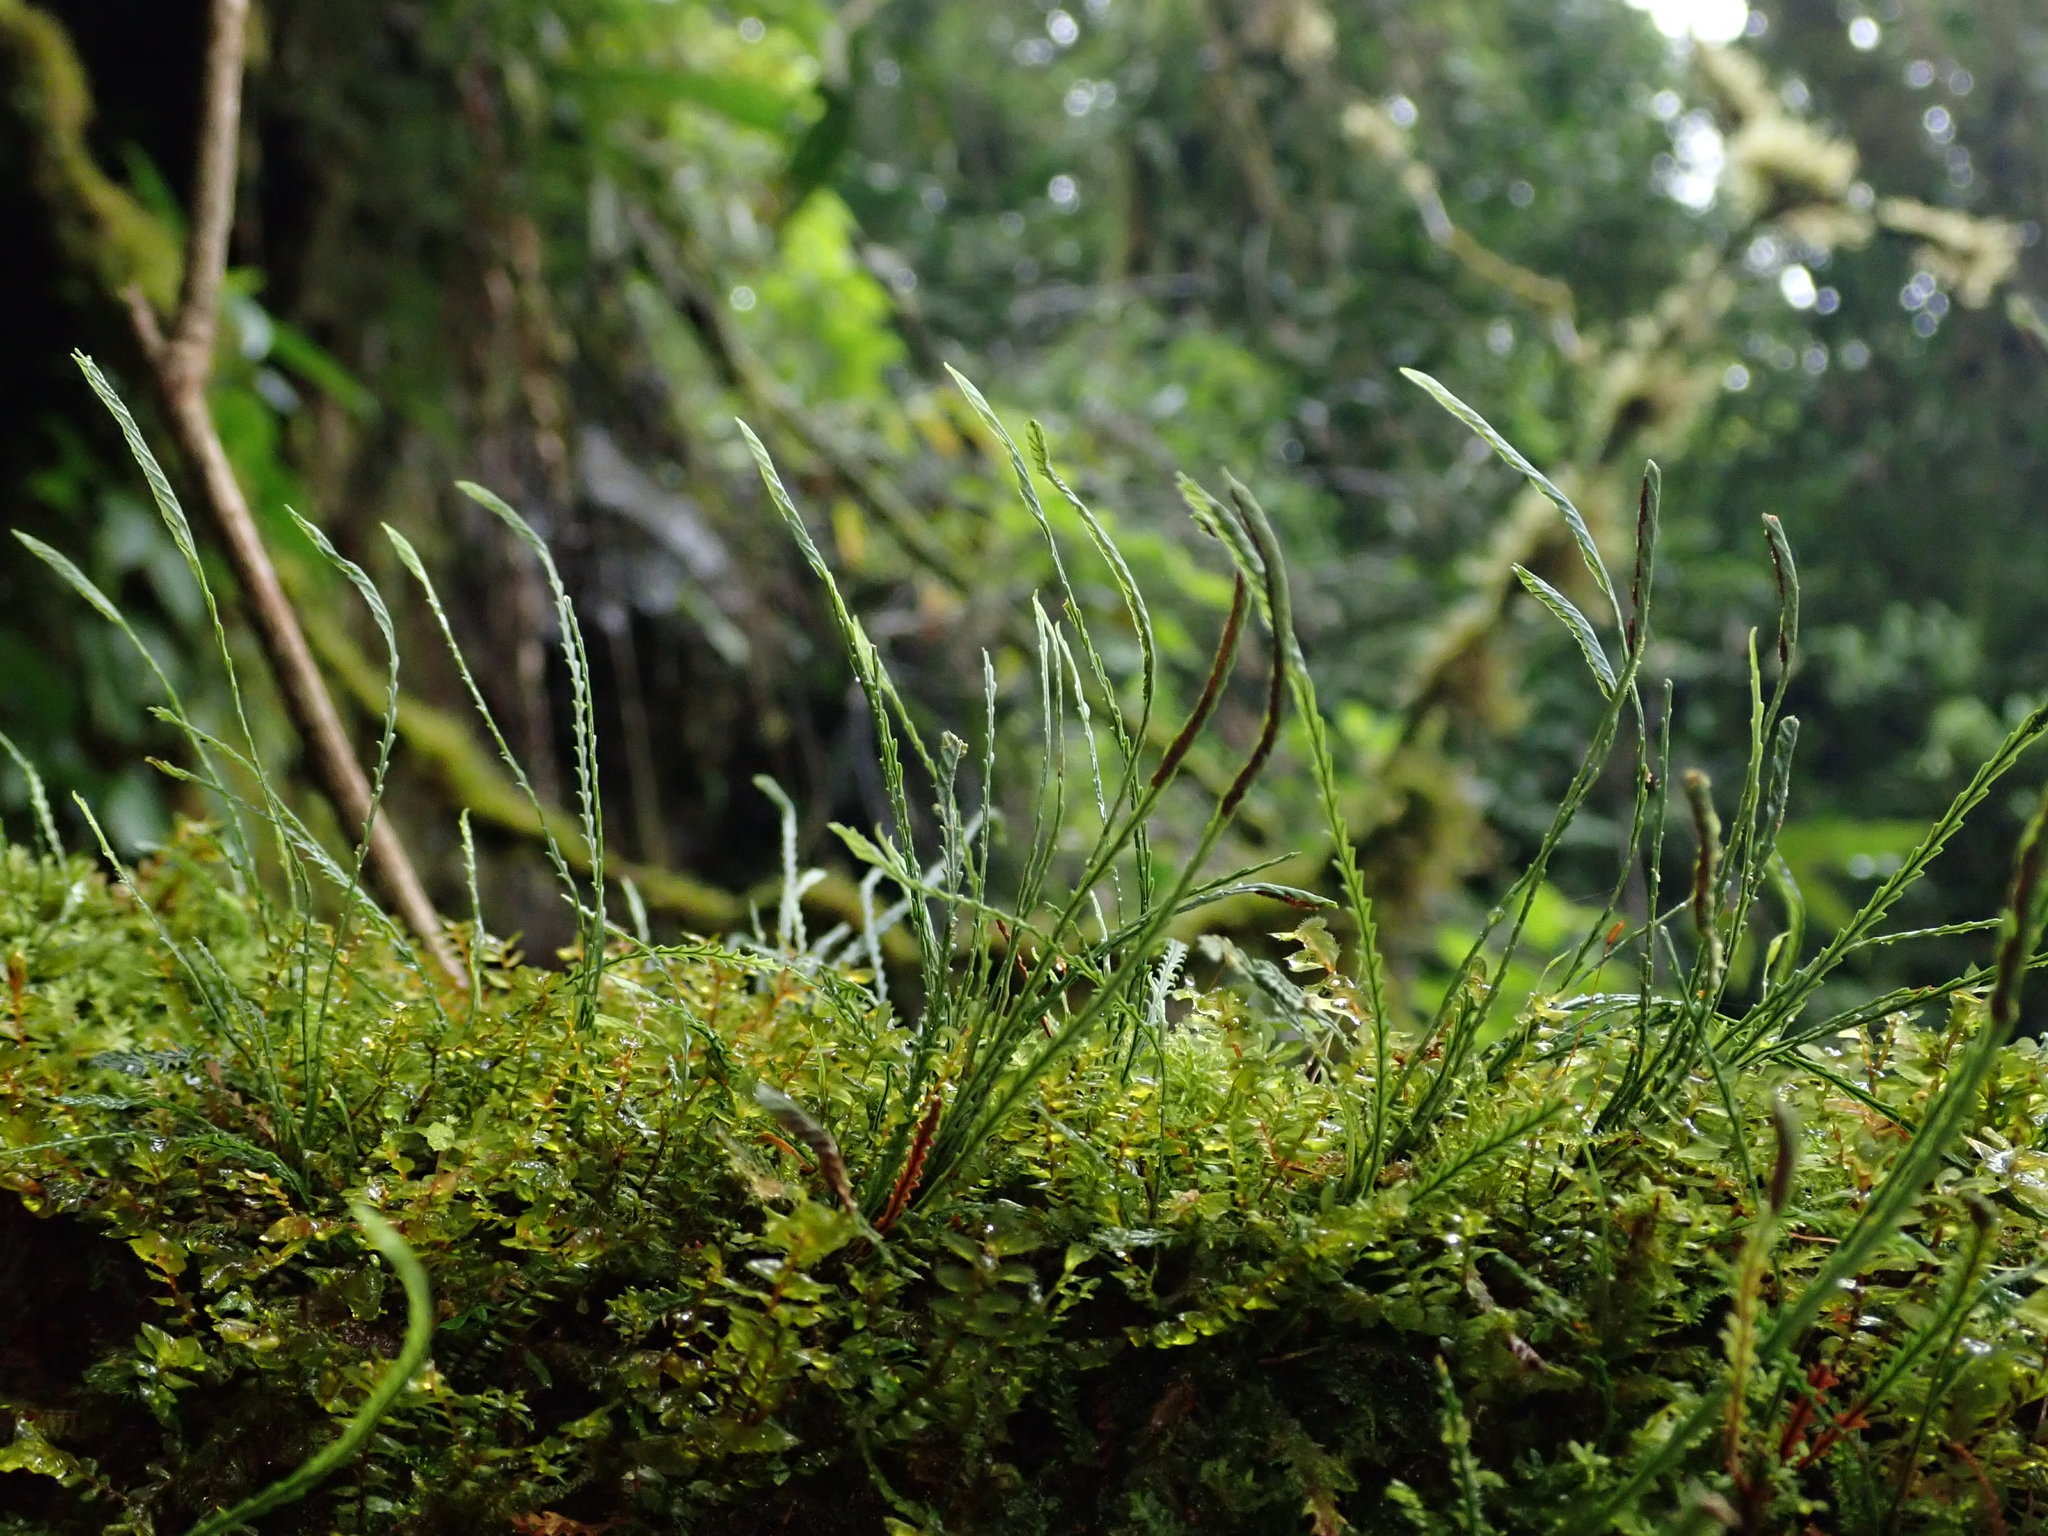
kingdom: Plantae
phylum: Tracheophyta
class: Polypodiopsida
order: Polypodiales
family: Polypodiaceae
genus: Cochlidium
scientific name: Cochlidium serrulatum
